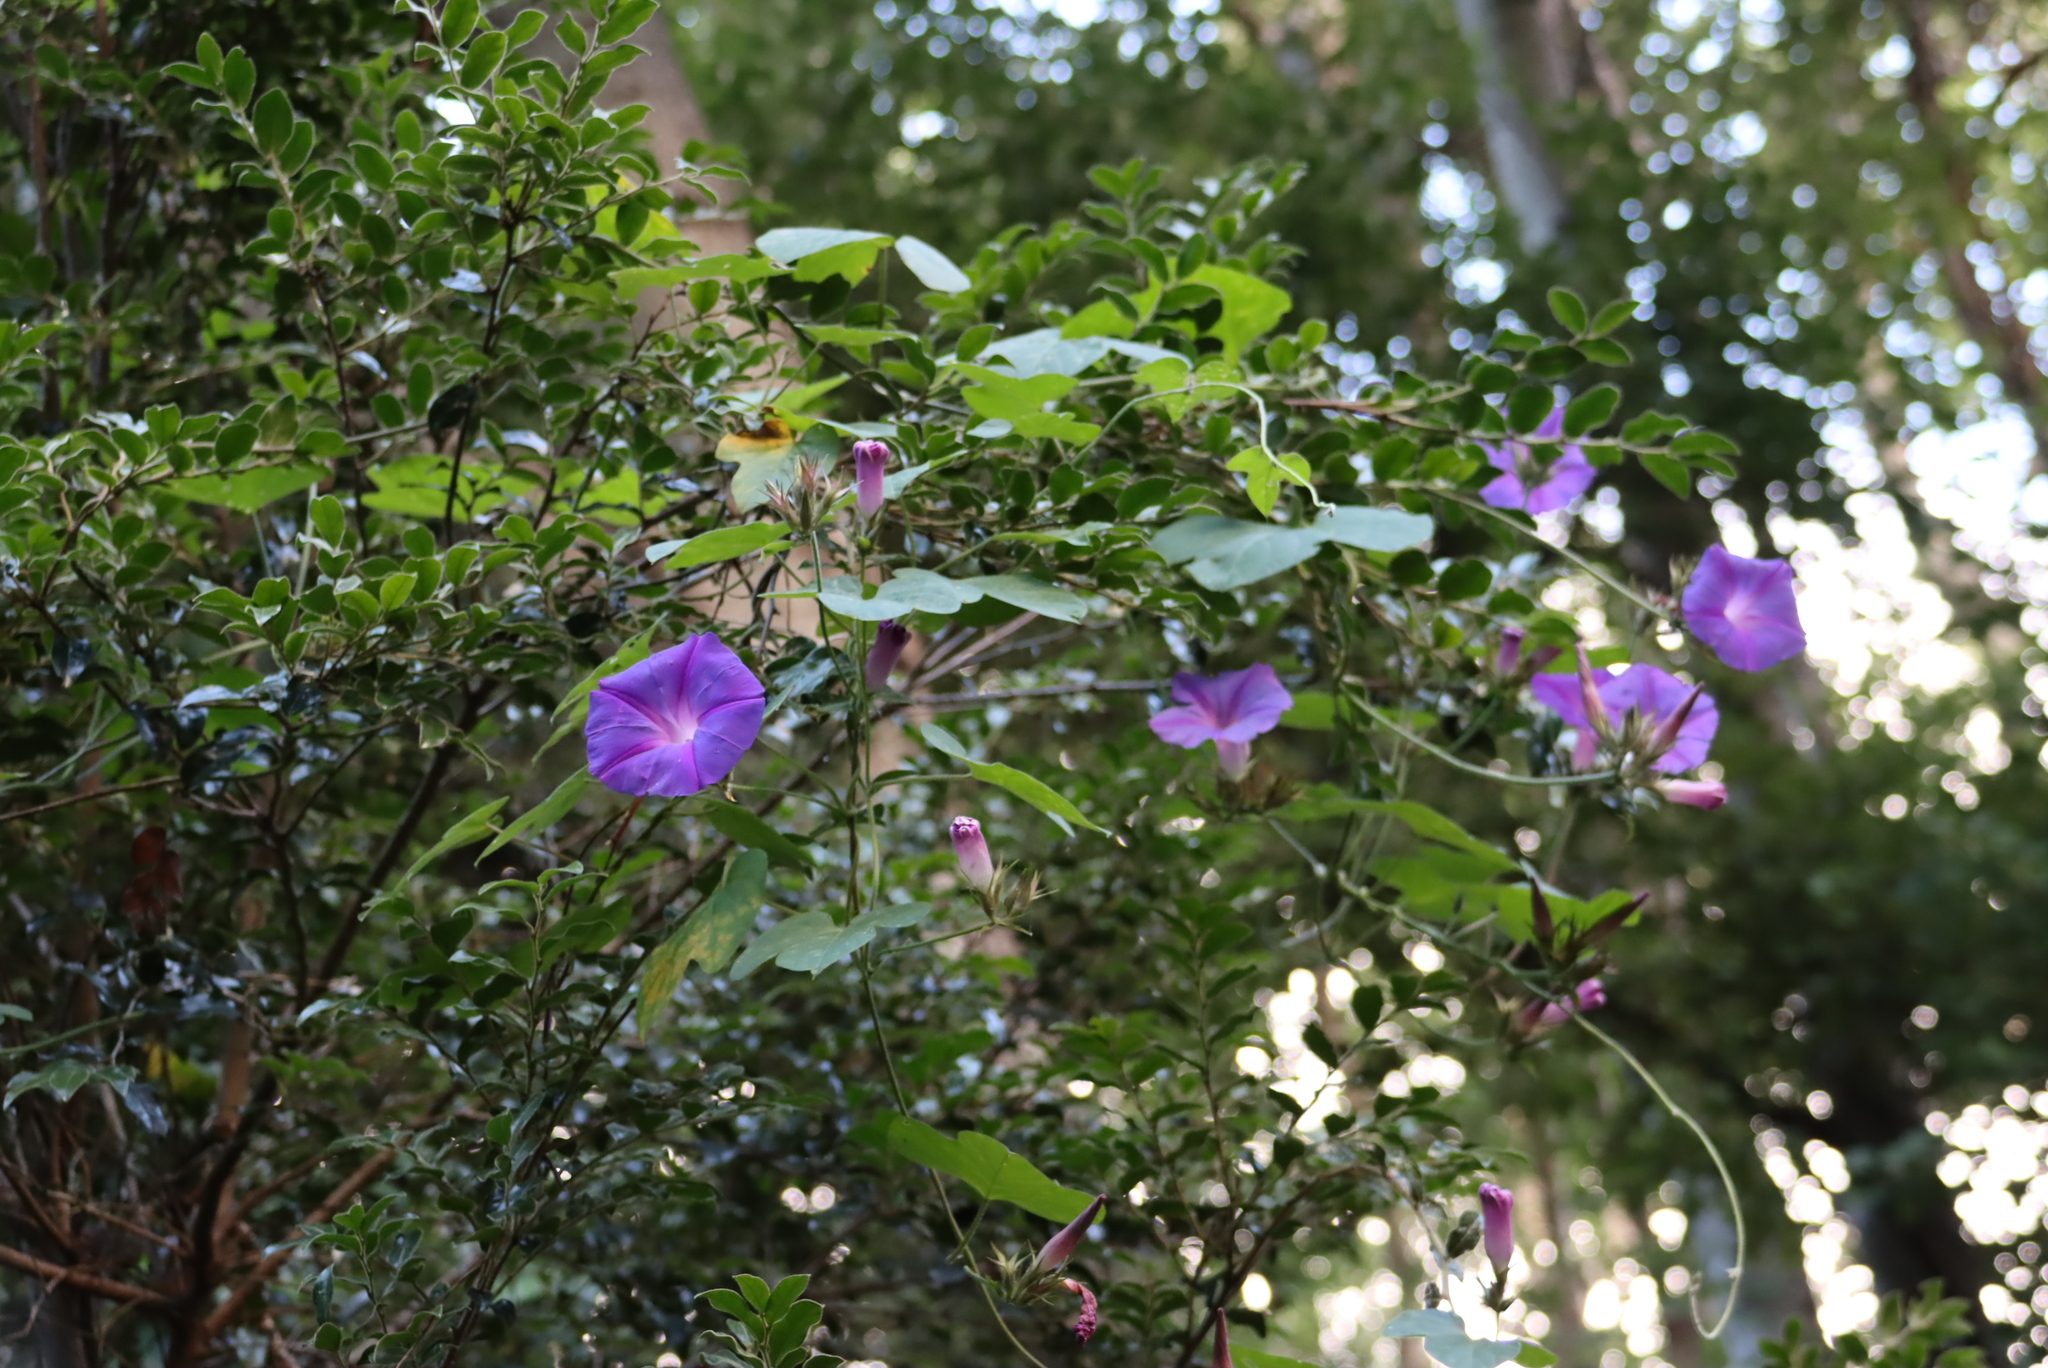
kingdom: Plantae
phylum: Tracheophyta
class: Magnoliopsida
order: Solanales
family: Convolvulaceae
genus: Ipomoea
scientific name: Ipomoea indica
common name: Blue dawnflower
